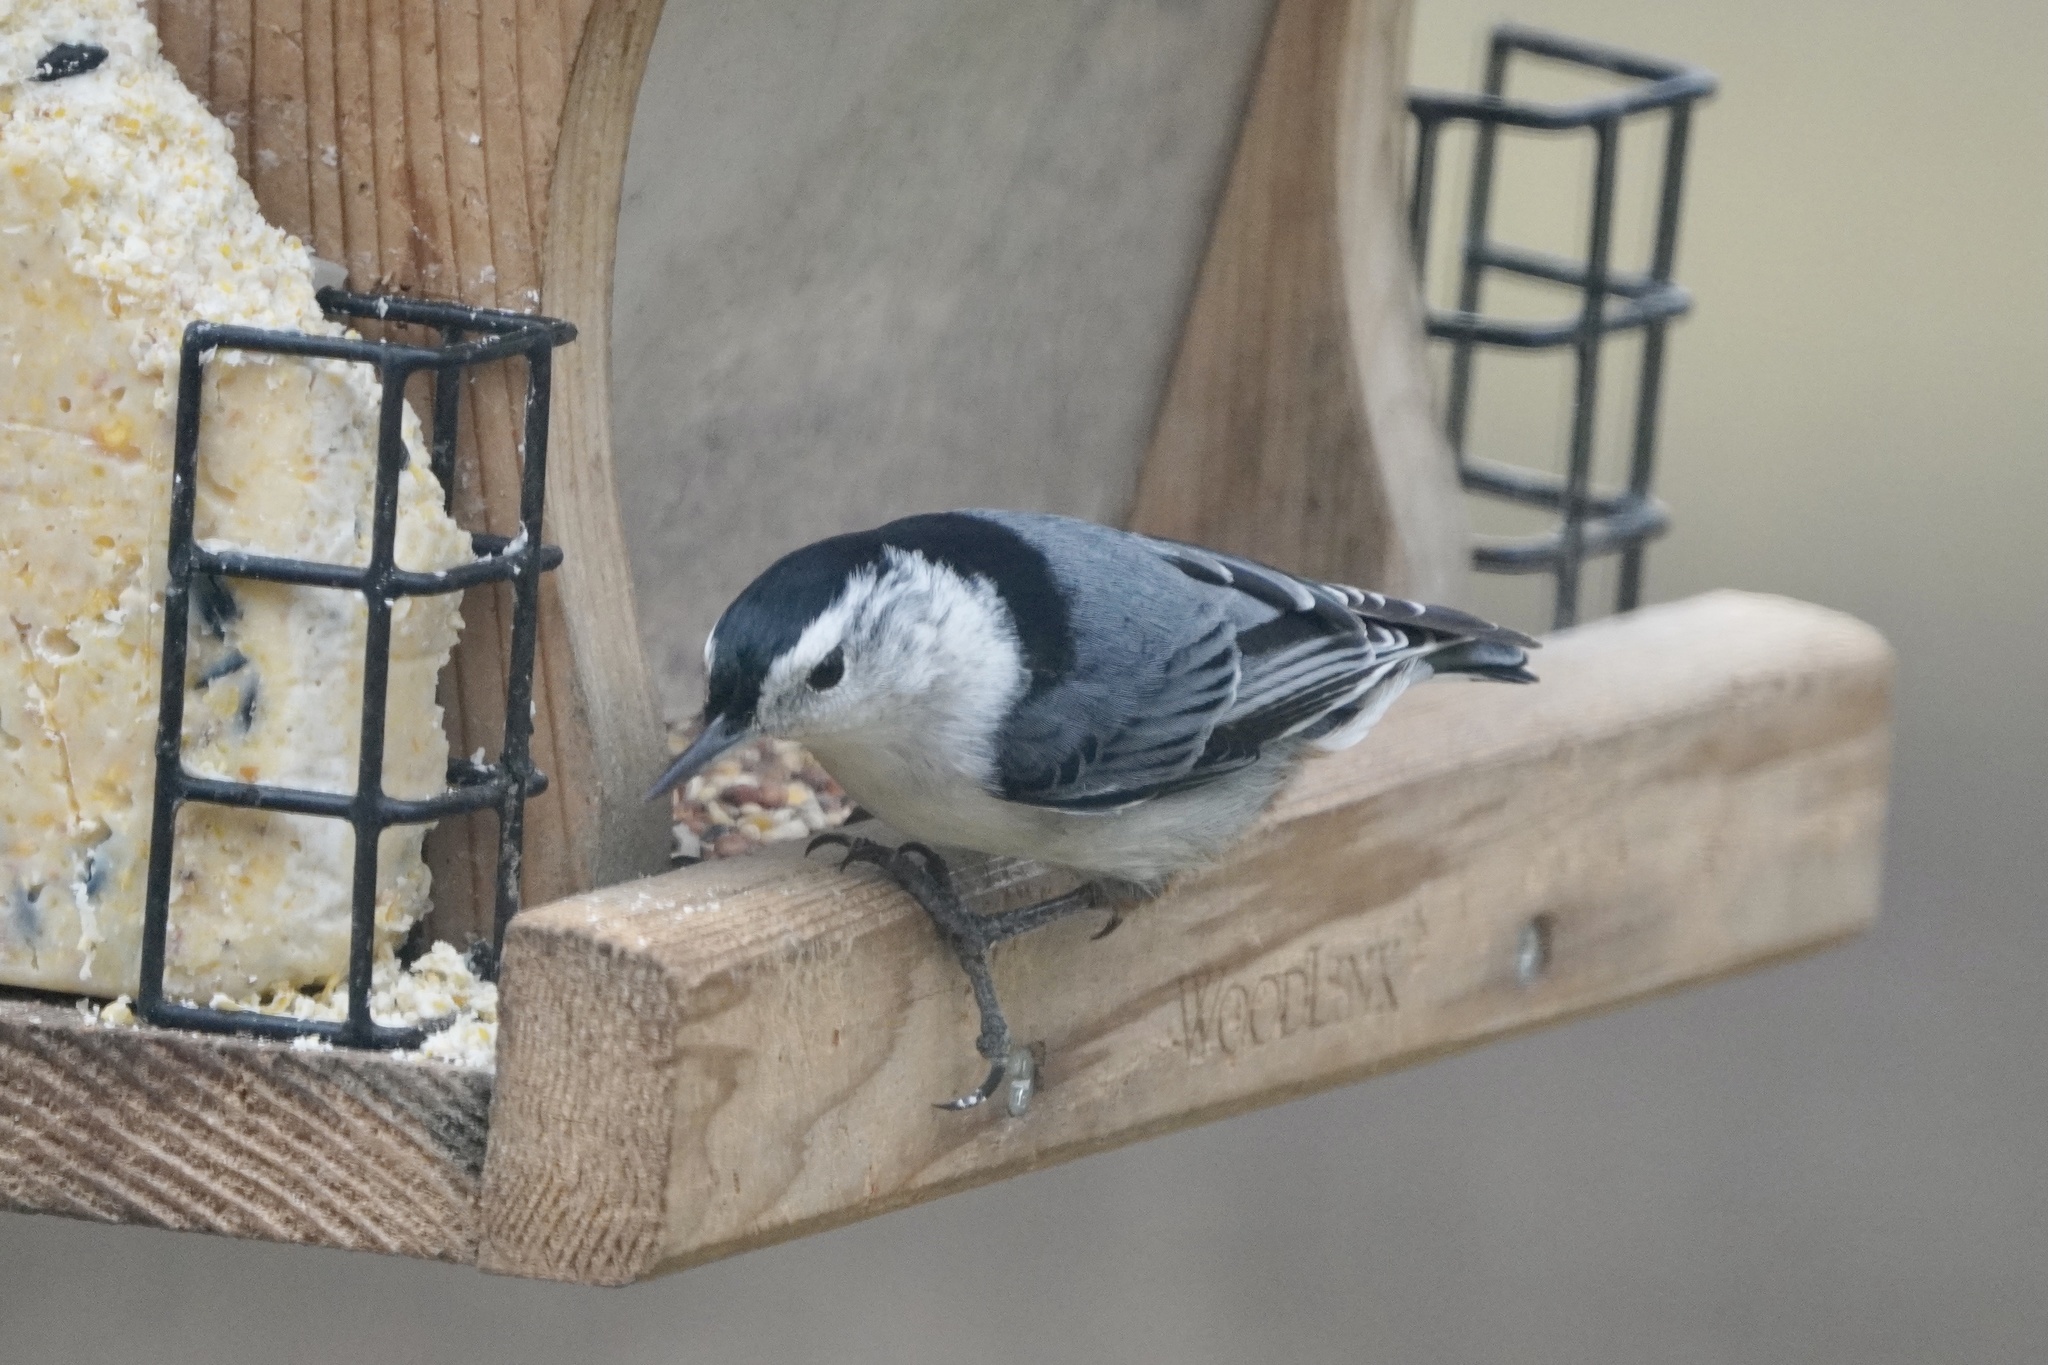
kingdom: Animalia
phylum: Chordata
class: Aves
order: Passeriformes
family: Sittidae
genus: Sitta
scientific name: Sitta carolinensis
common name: White-breasted nuthatch
